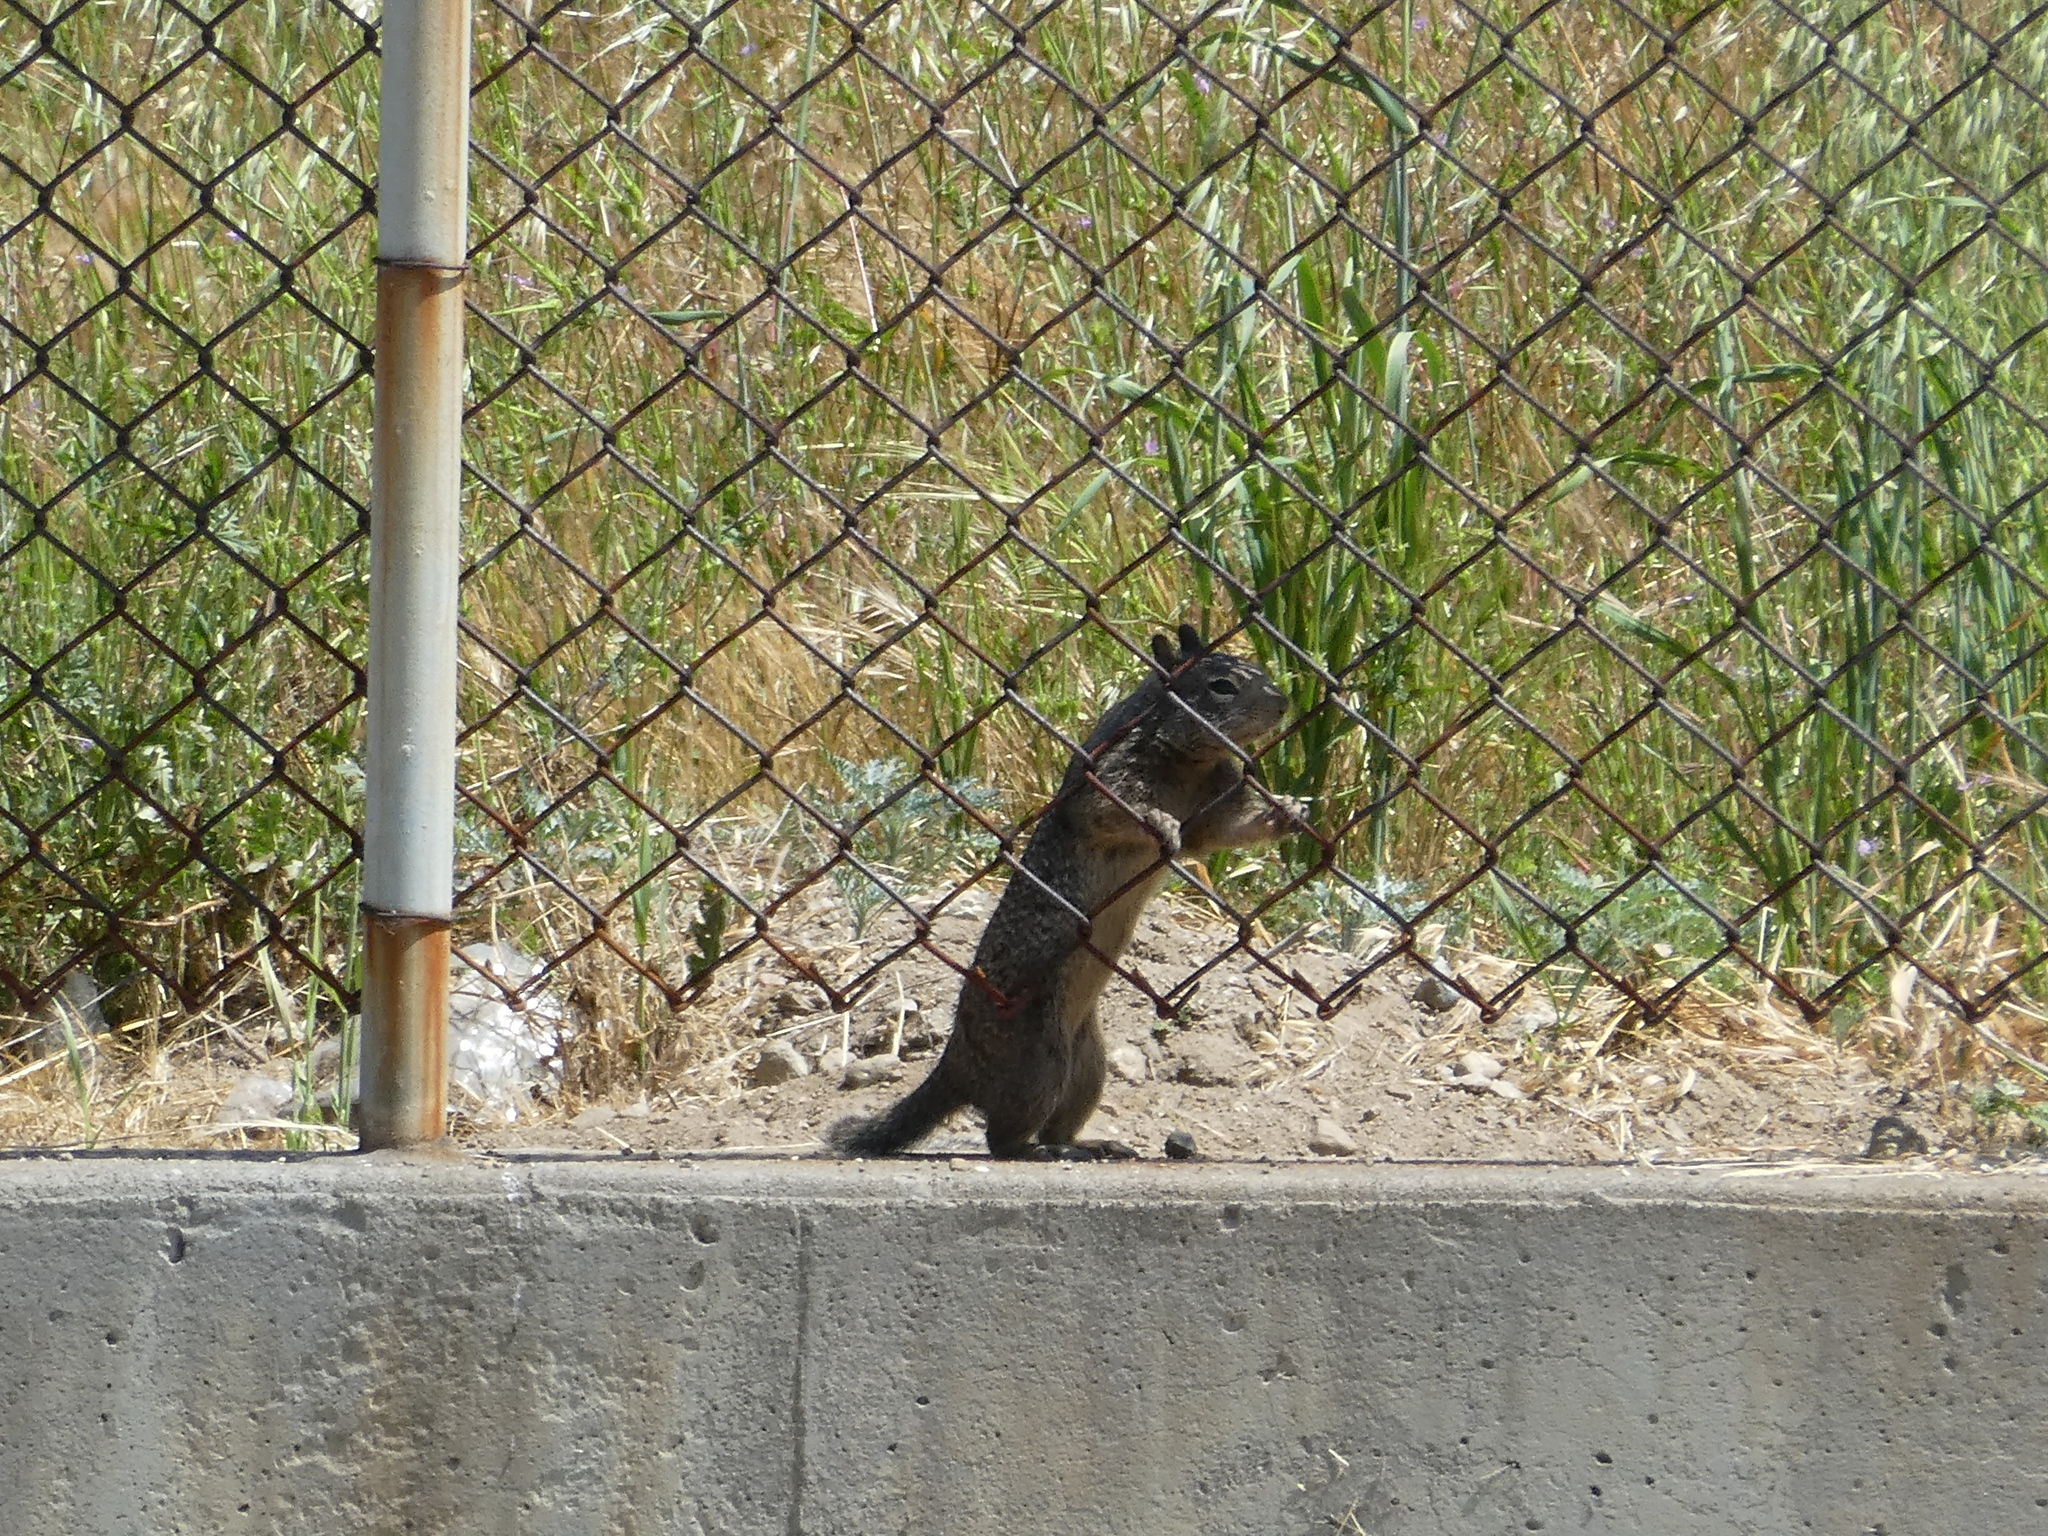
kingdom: Animalia
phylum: Chordata
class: Mammalia
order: Rodentia
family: Sciuridae
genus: Otospermophilus
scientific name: Otospermophilus beecheyi
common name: California ground squirrel
